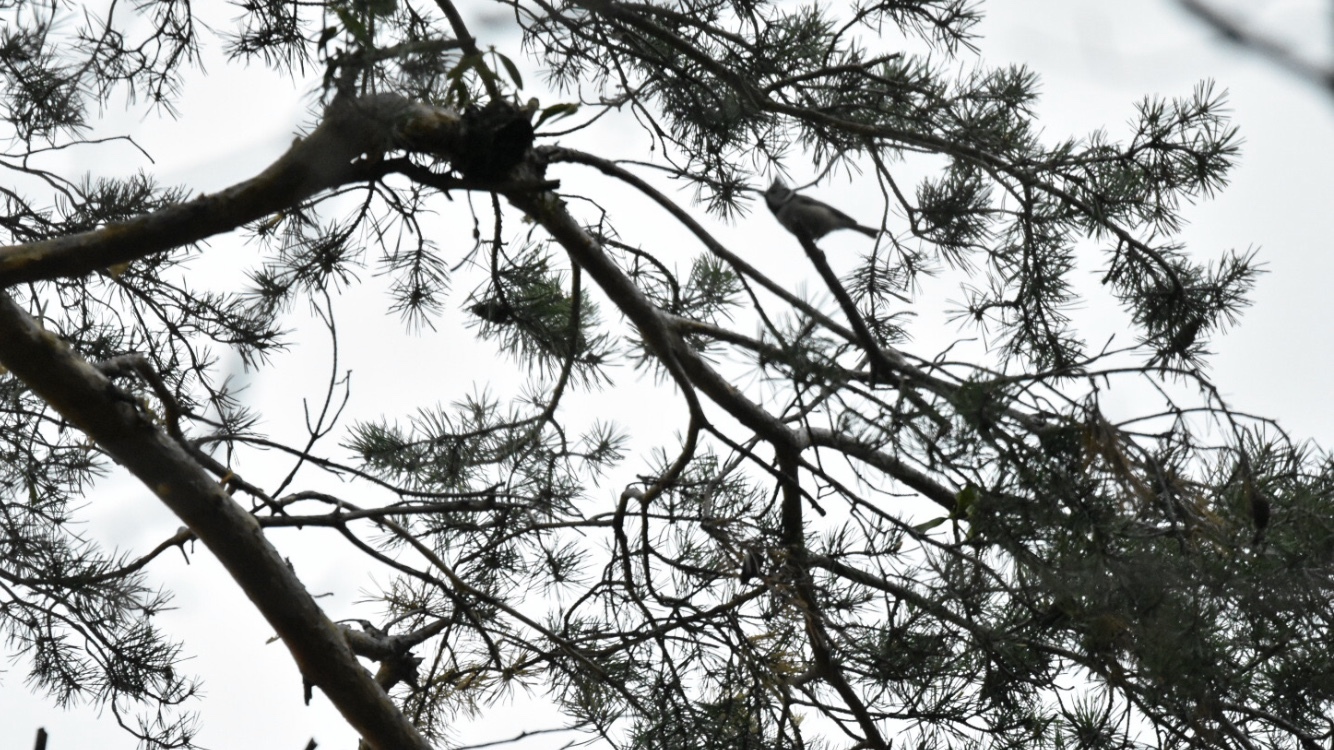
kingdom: Animalia
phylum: Chordata
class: Aves
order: Passeriformes
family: Paridae
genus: Lophophanes
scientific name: Lophophanes cristatus
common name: European crested tit
